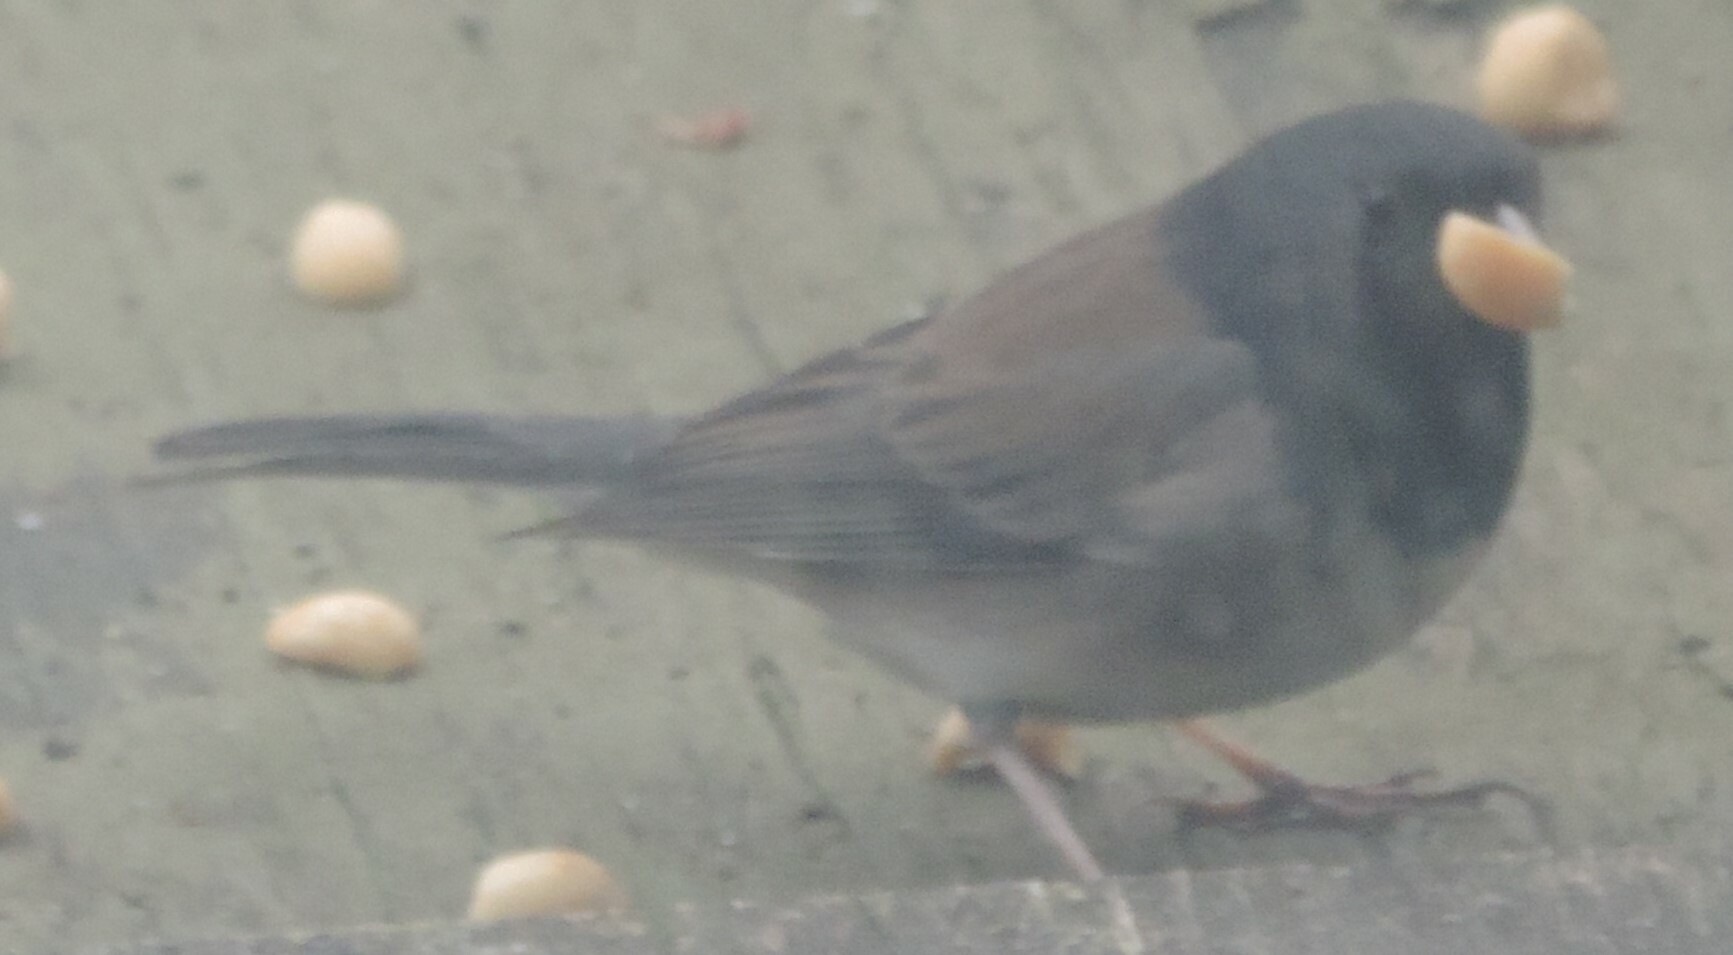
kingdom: Animalia
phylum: Chordata
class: Aves
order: Passeriformes
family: Passerellidae
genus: Junco
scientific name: Junco hyemalis
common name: Dark-eyed junco
